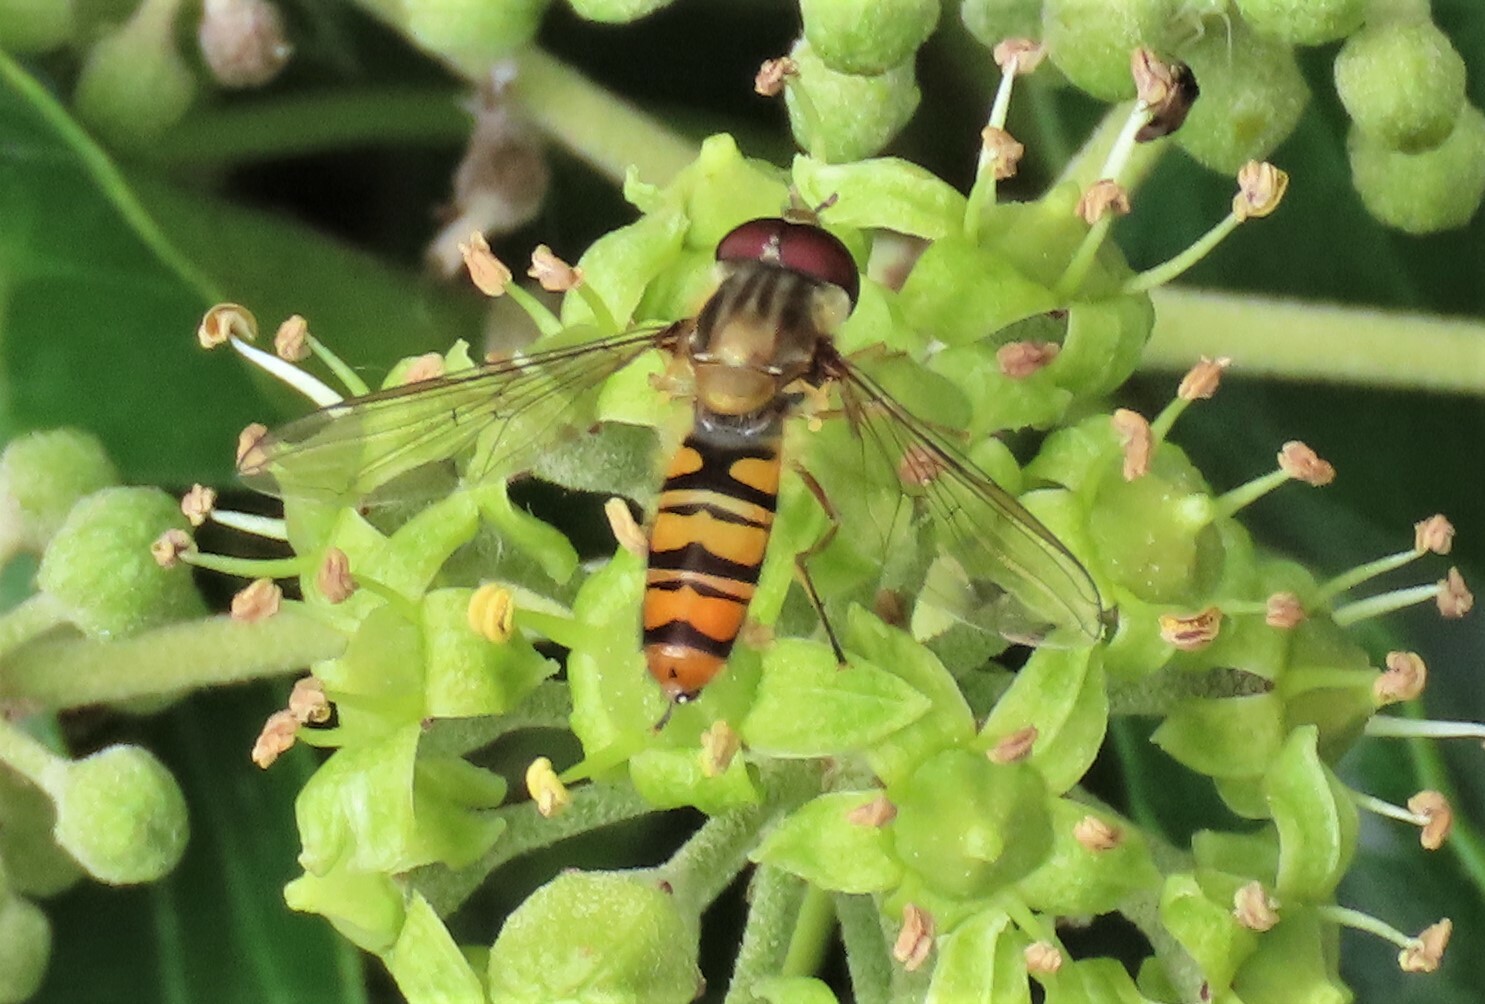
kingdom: Animalia
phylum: Arthropoda
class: Insecta
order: Diptera
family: Syrphidae
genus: Episyrphus
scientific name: Episyrphus balteatus
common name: Marmalade hoverfly
